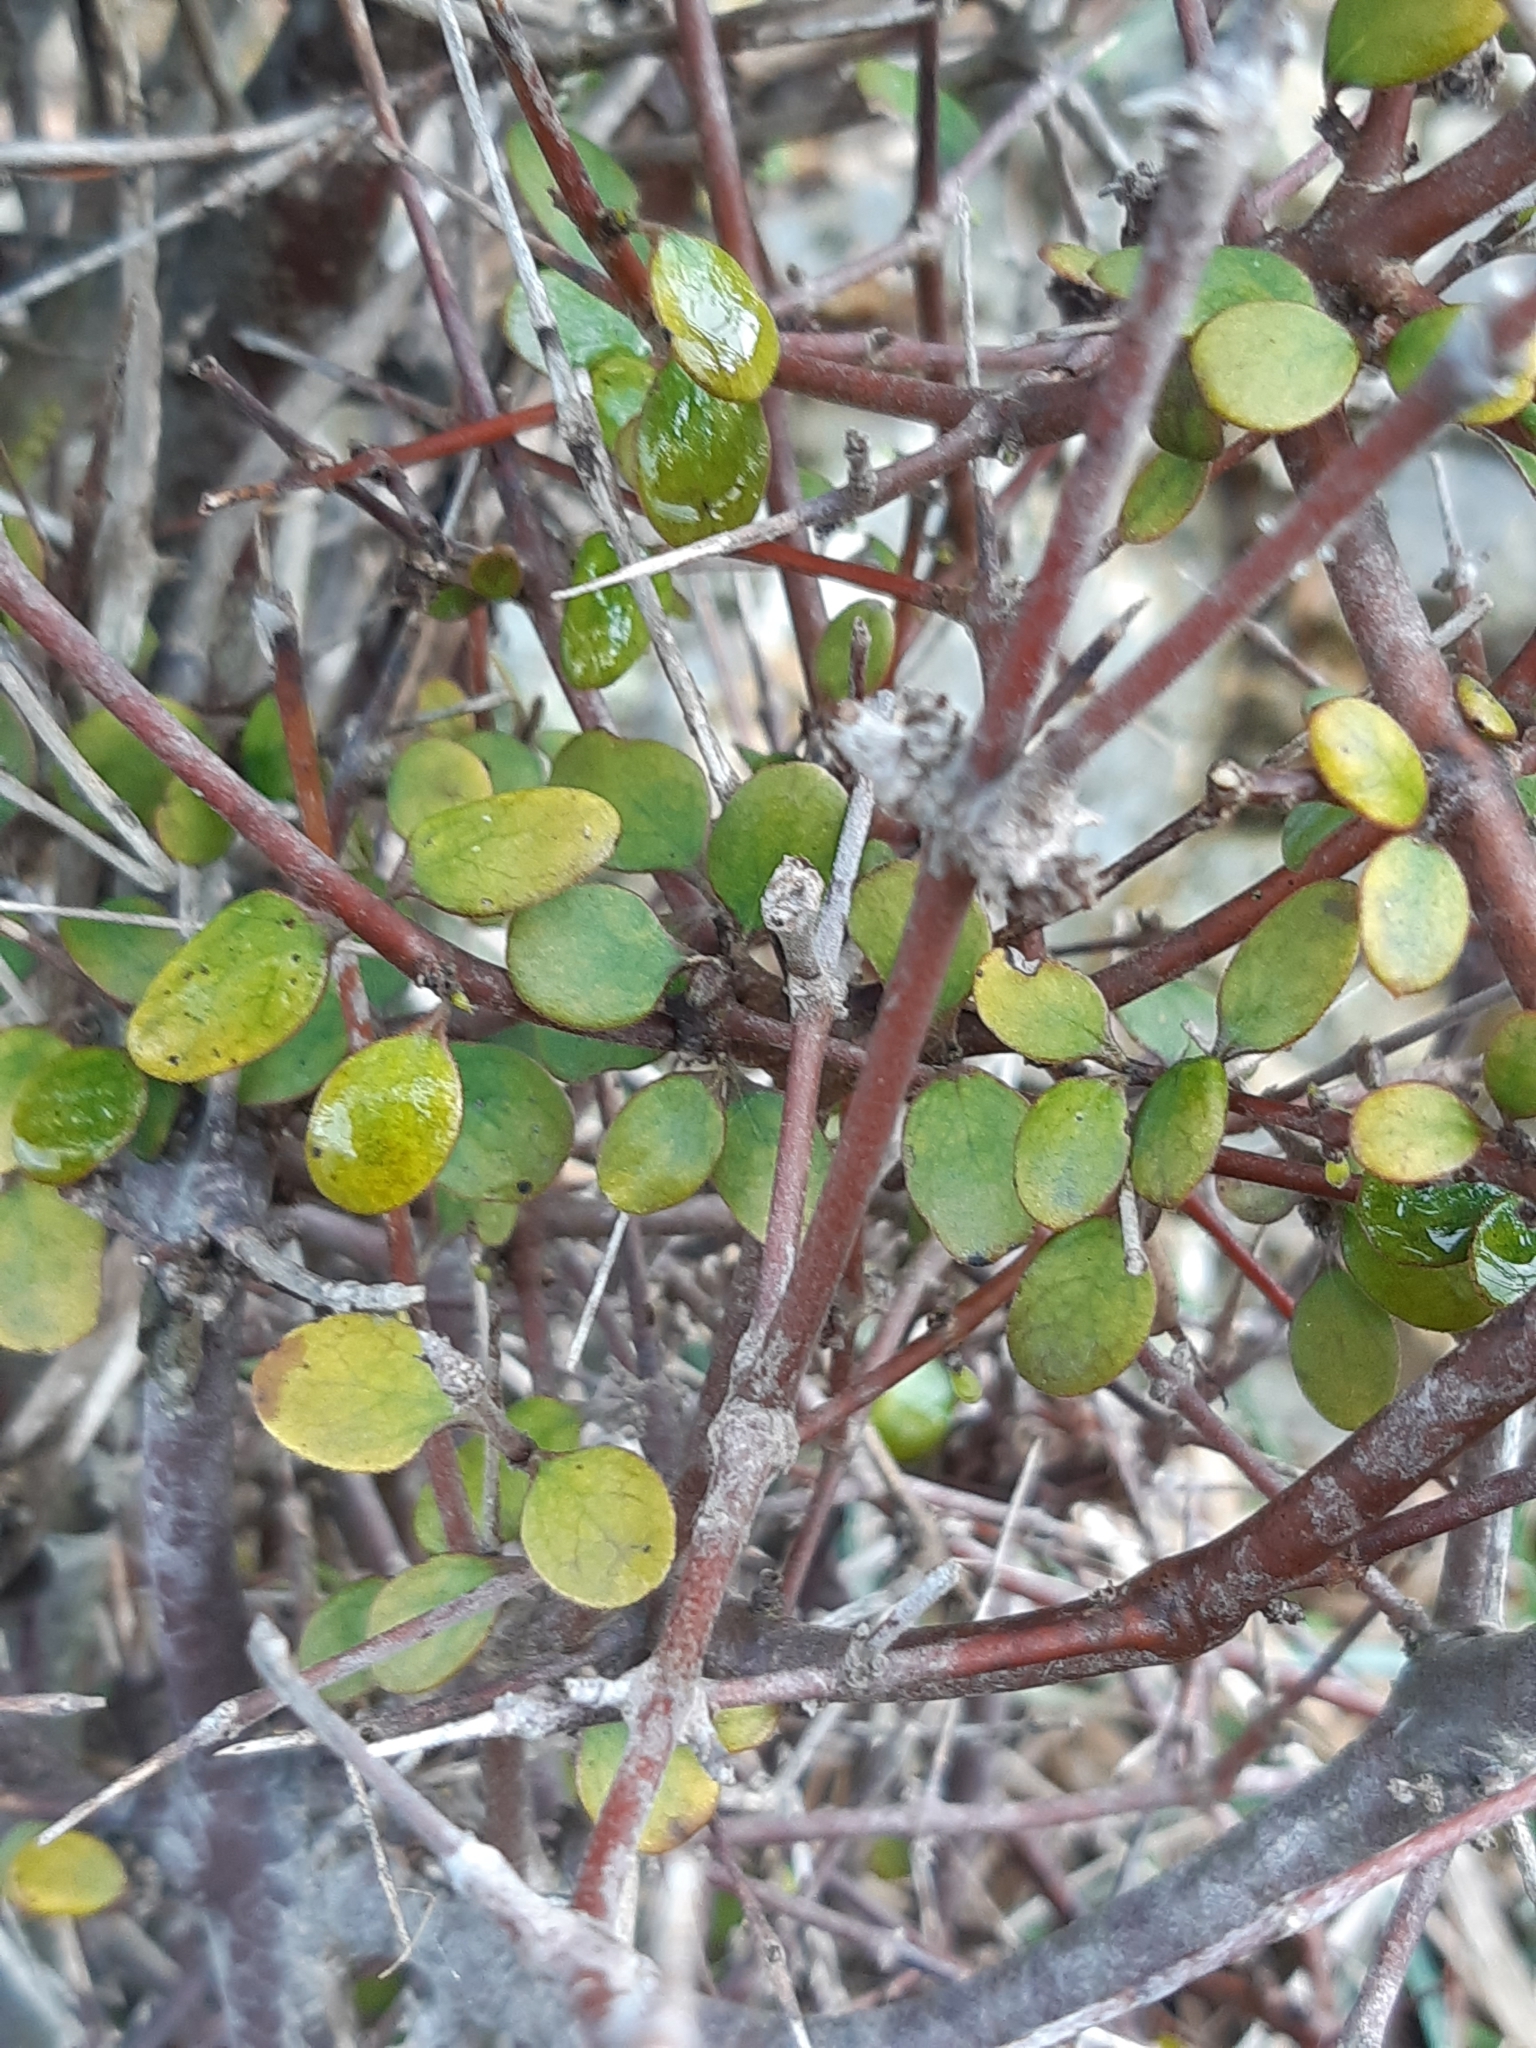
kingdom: Plantae
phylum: Tracheophyta
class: Magnoliopsida
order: Santalales
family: Viscaceae
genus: Korthalsella
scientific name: Korthalsella lindsayi
